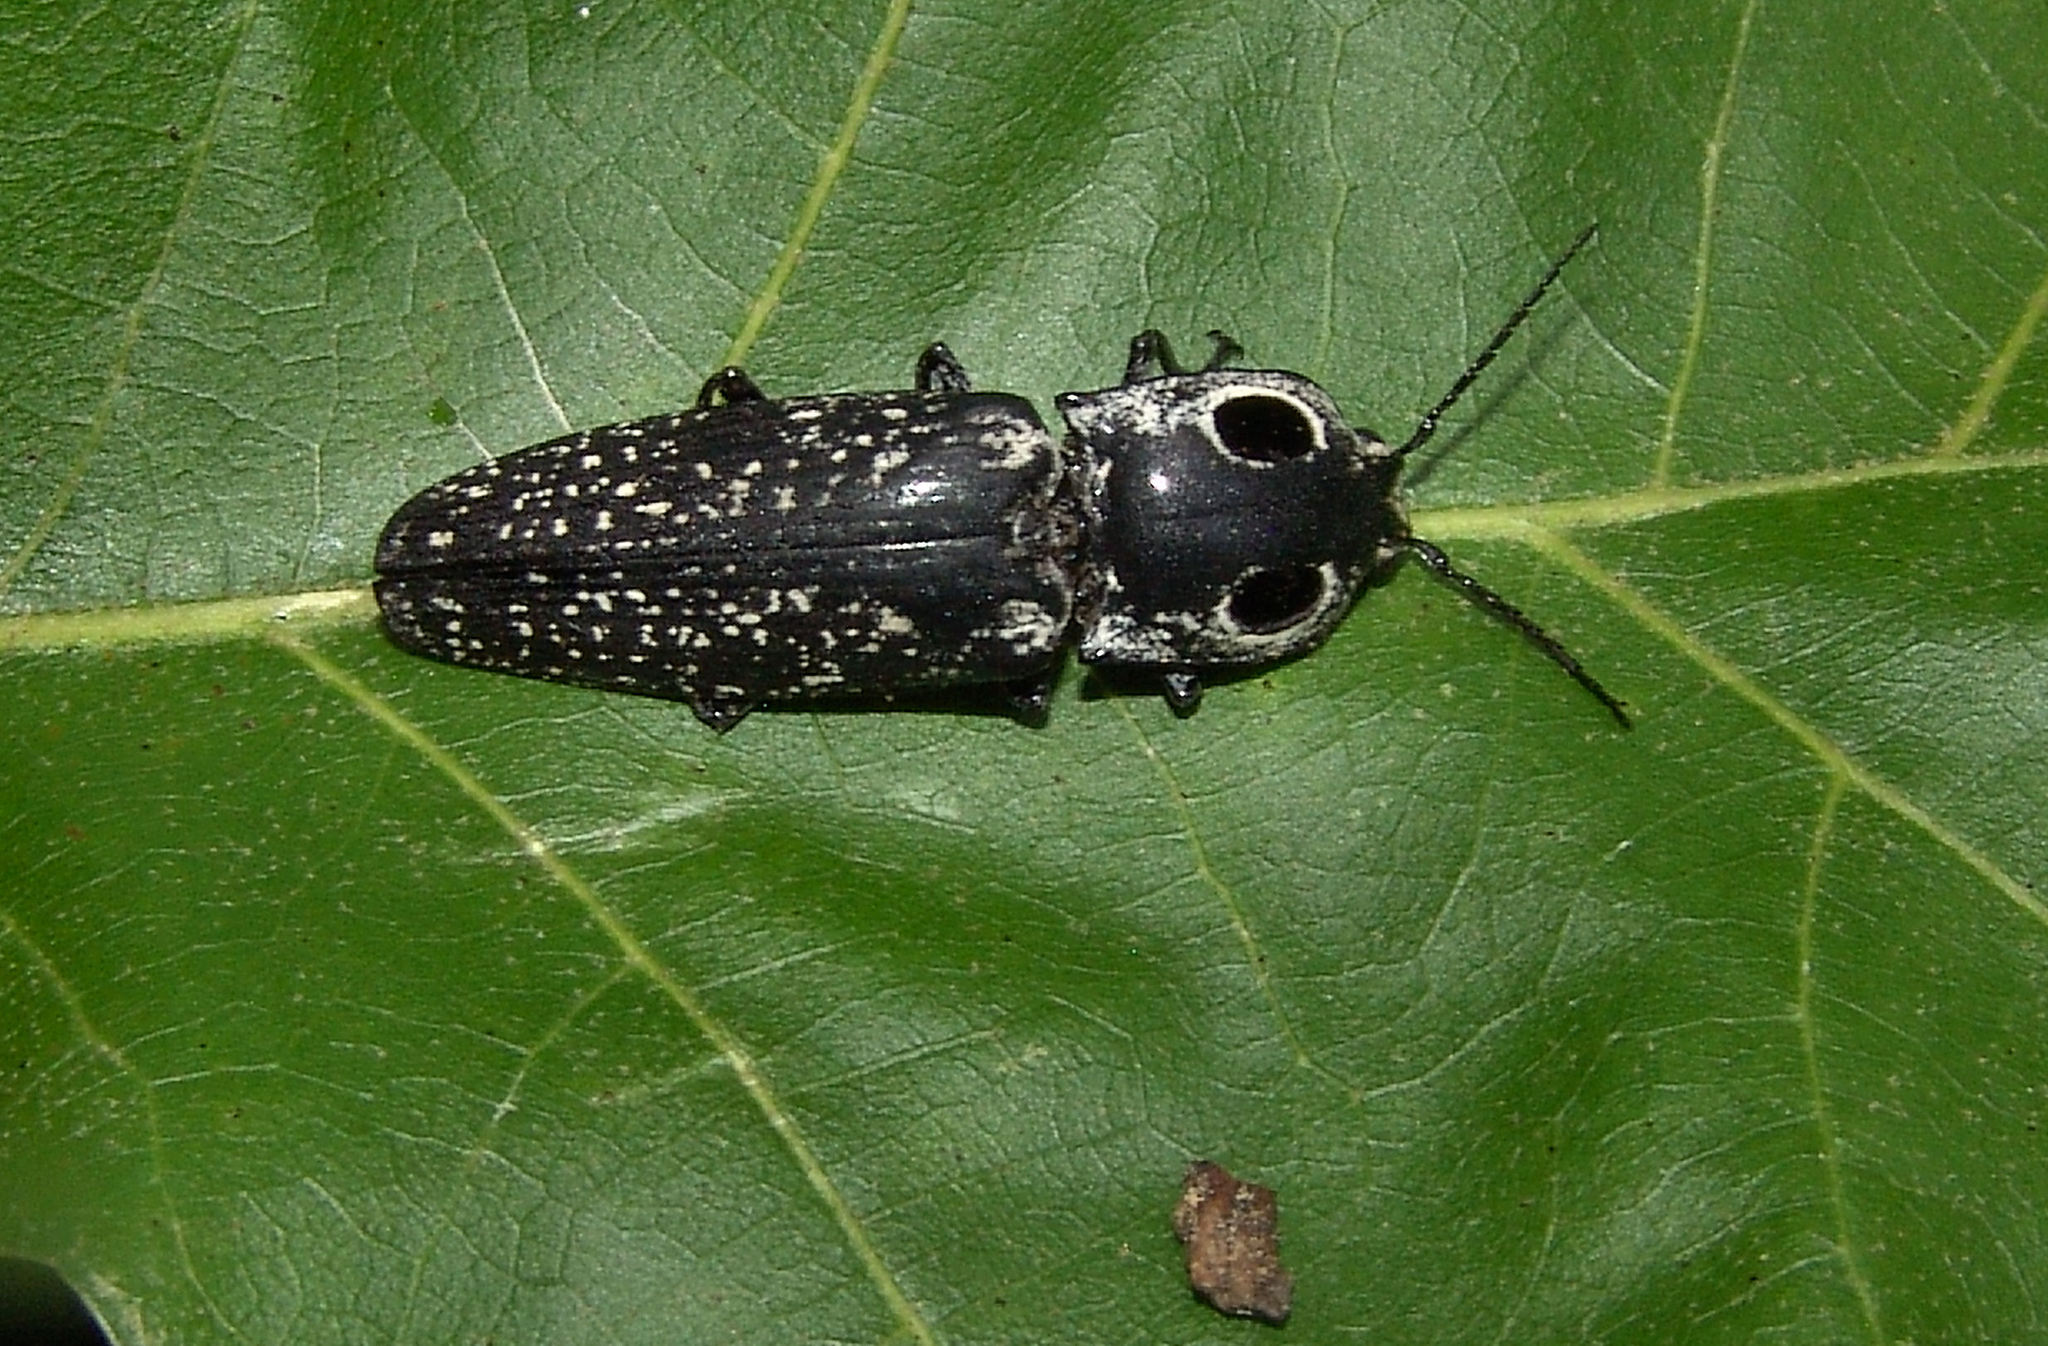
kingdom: Animalia
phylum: Arthropoda
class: Insecta
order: Coleoptera
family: Elateridae
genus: Alaus
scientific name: Alaus oculatus
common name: Eastern eyed click beetle
